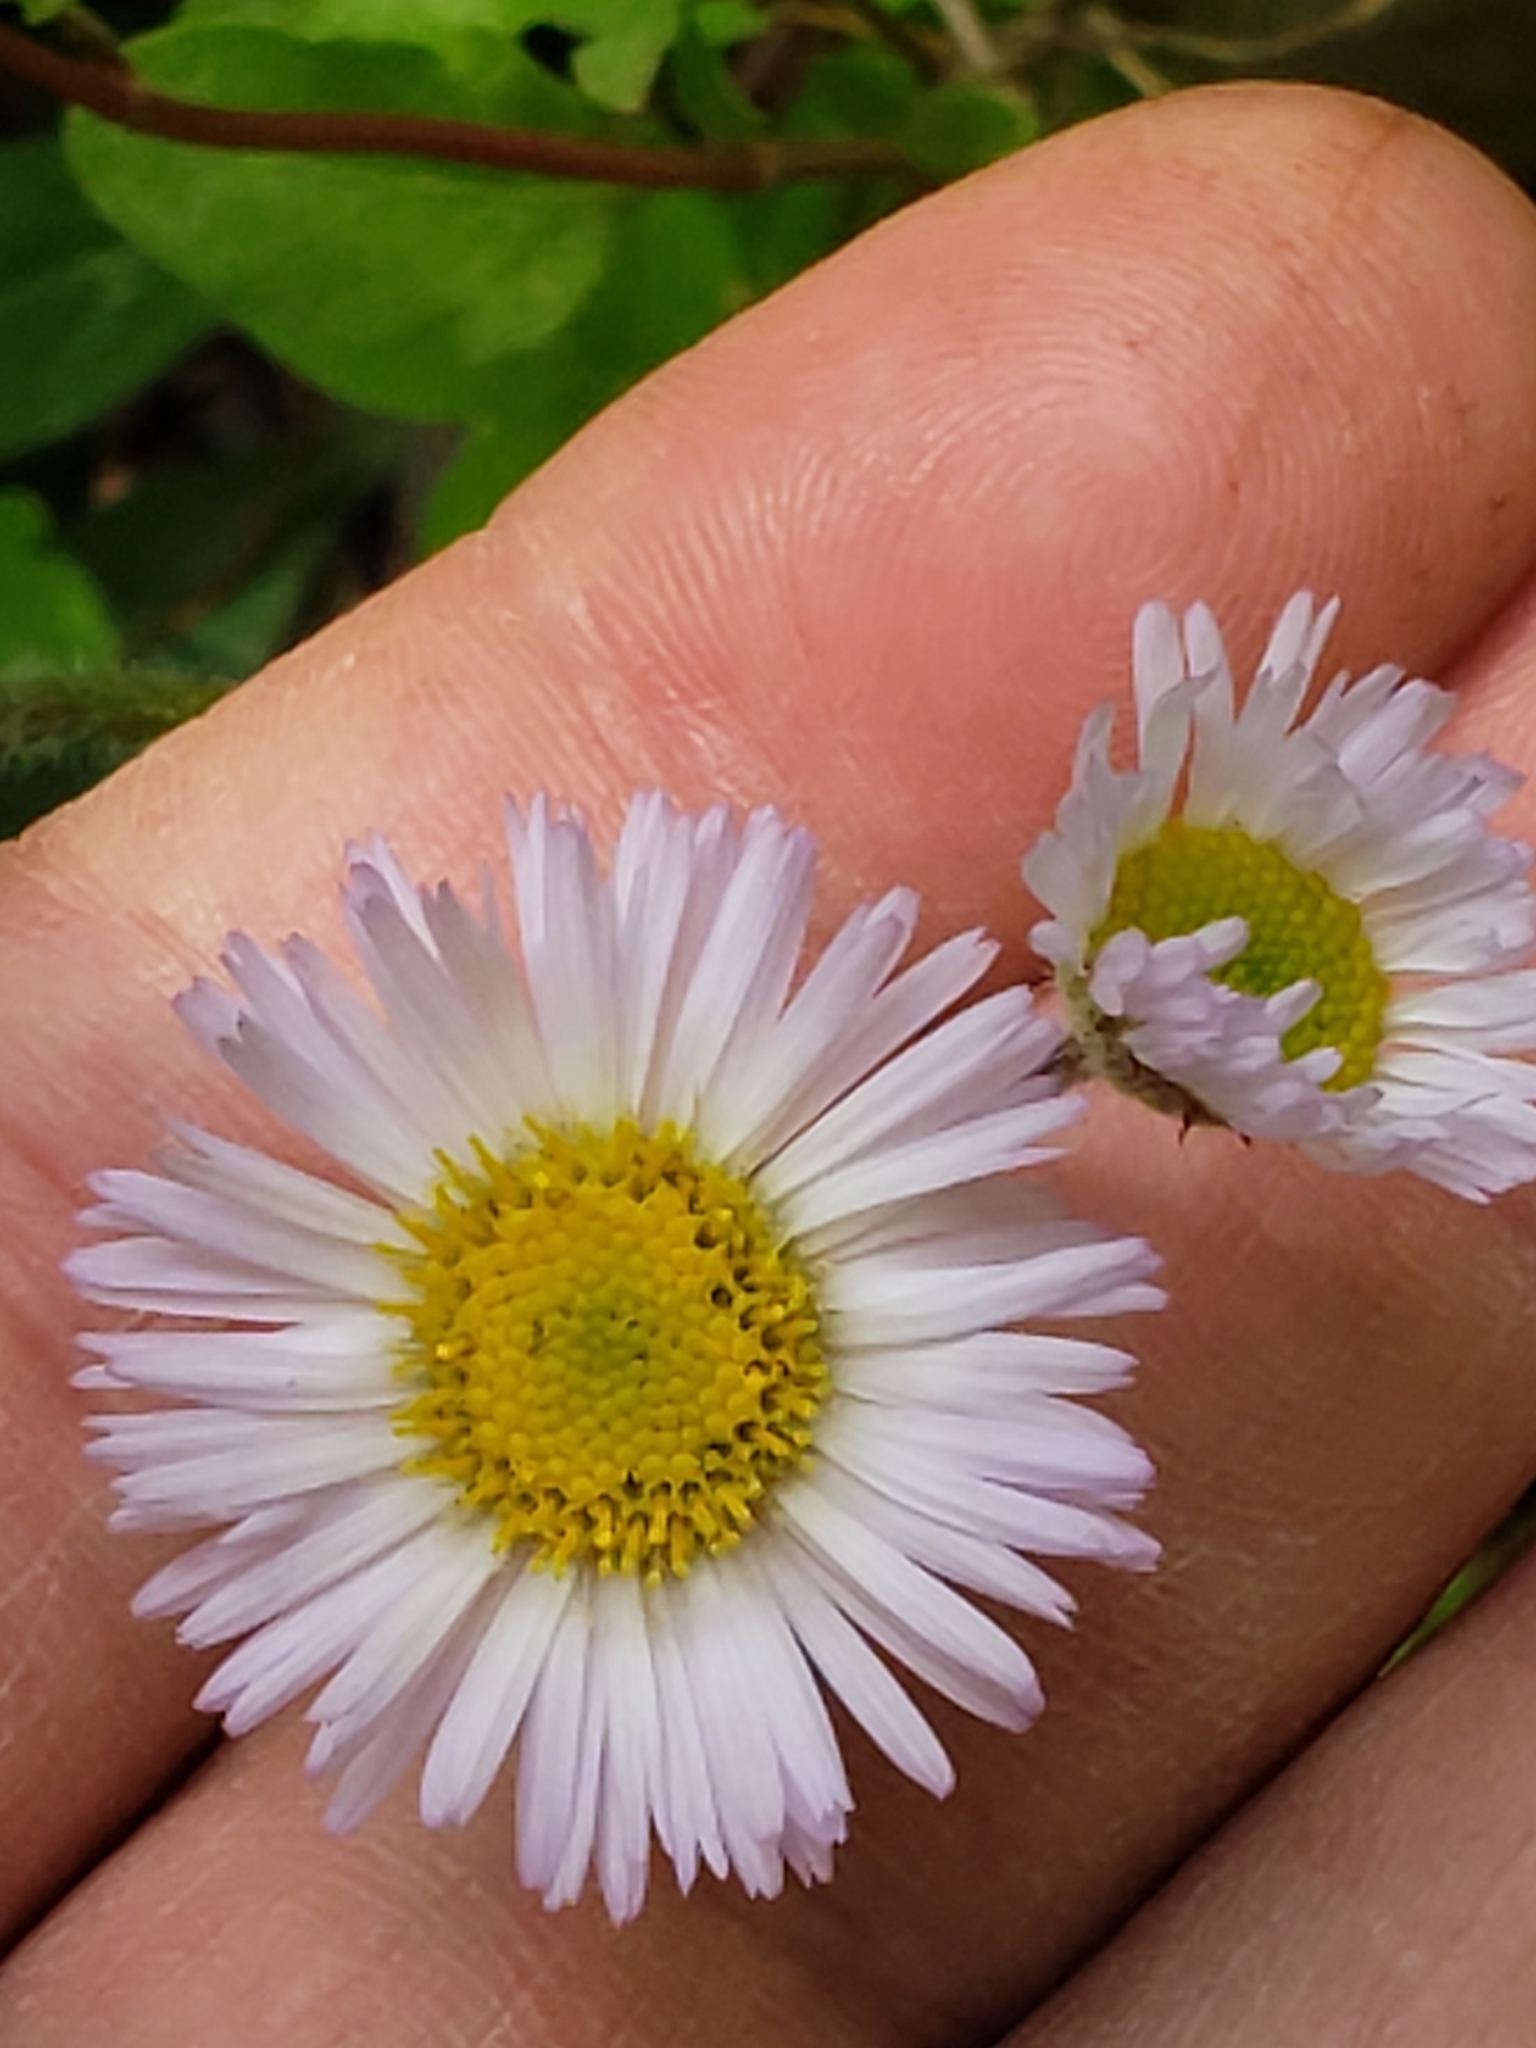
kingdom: Plantae
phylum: Tracheophyta
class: Magnoliopsida
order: Asterales
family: Asteraceae
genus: Erigeron
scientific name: Erigeron pulchellus
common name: Hairy fleabane
